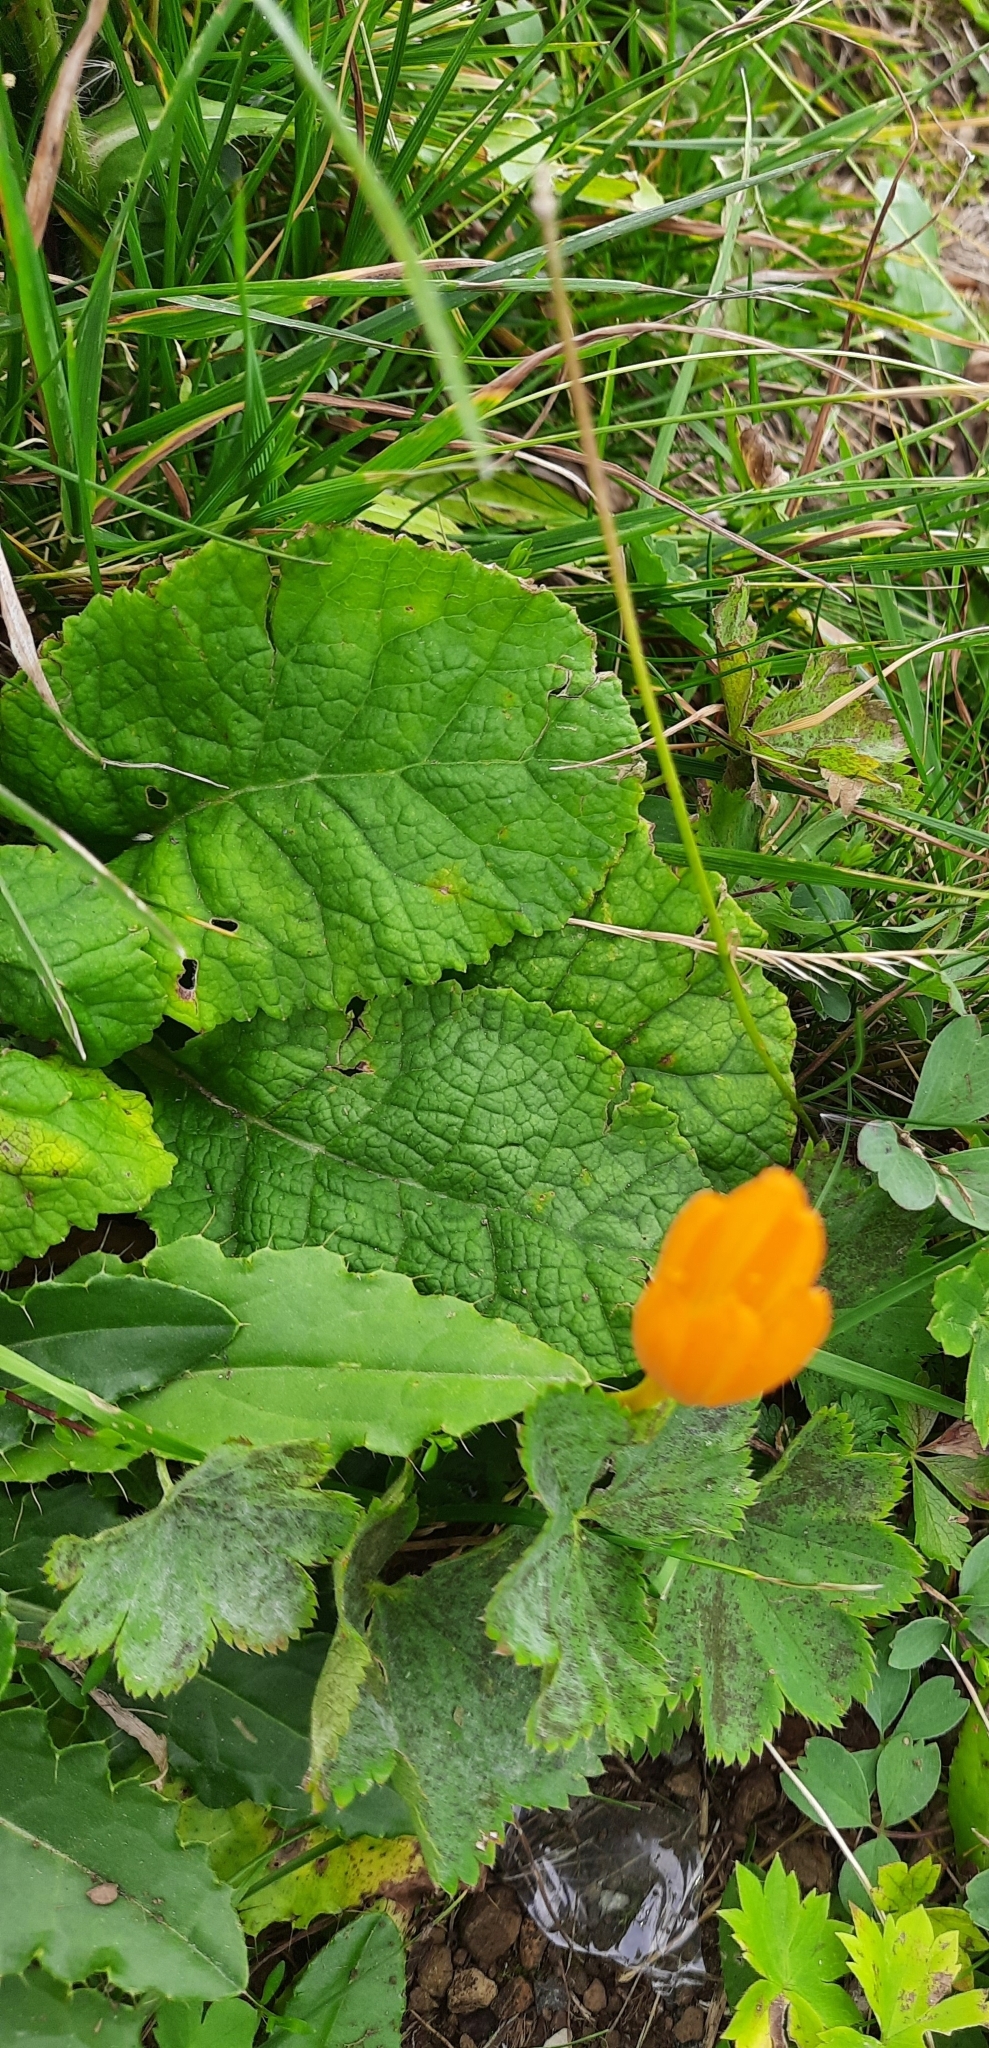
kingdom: Plantae
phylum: Tracheophyta
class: Liliopsida
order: Asparagales
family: Iridaceae
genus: Crocus
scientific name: Crocus scharojanii
